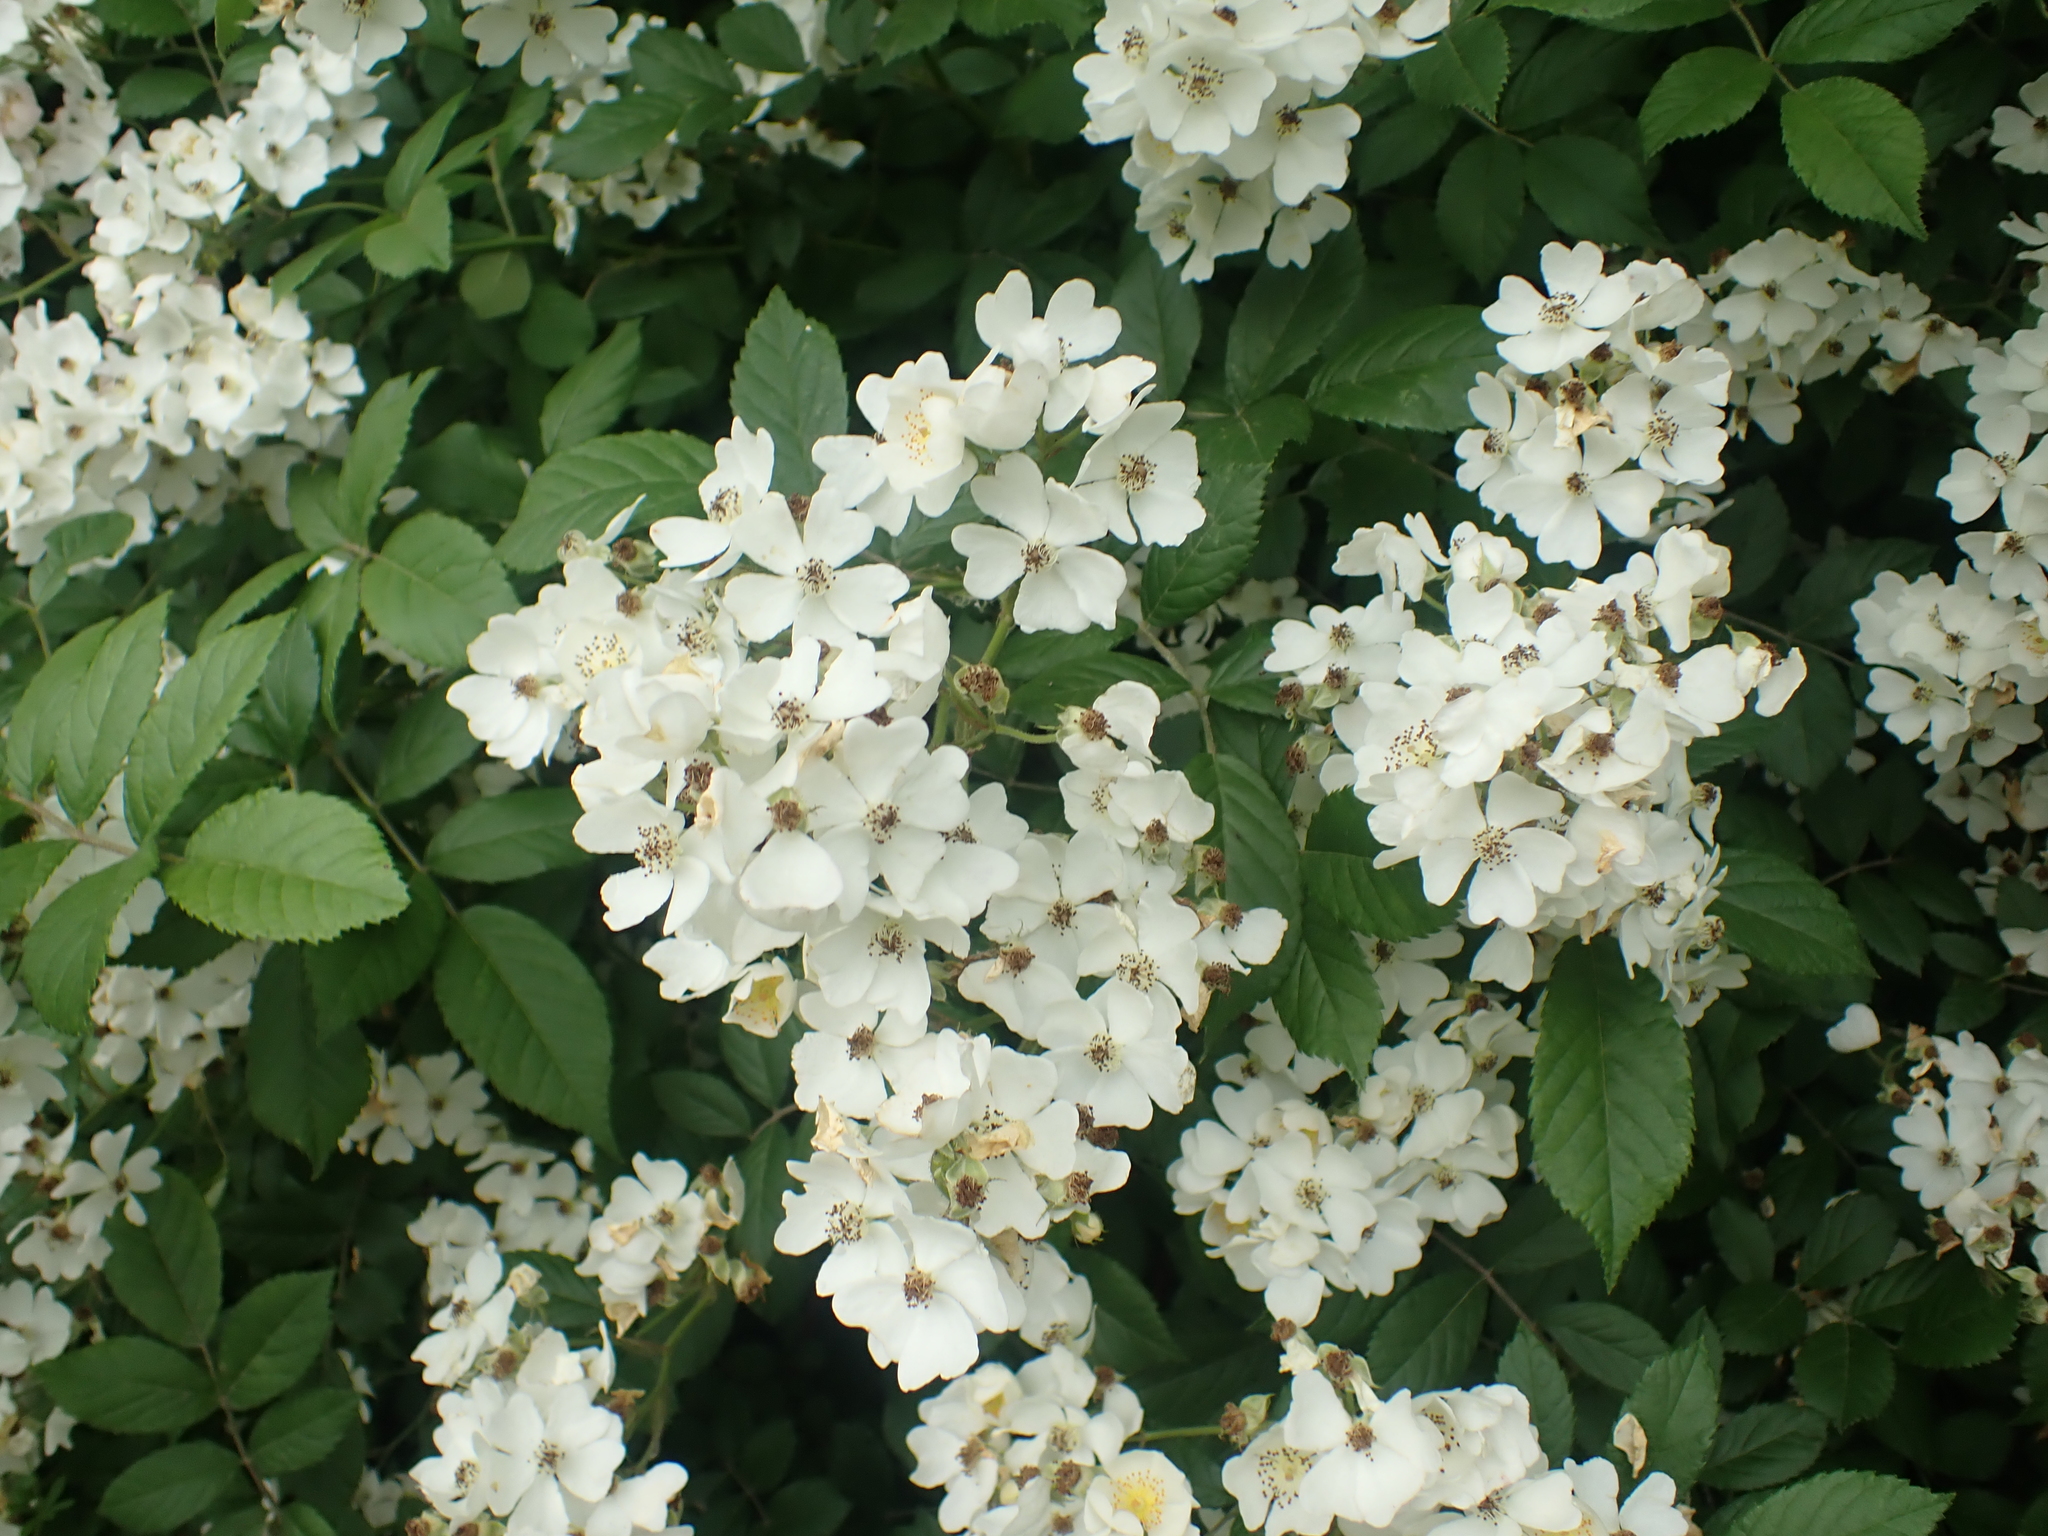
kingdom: Plantae
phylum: Tracheophyta
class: Magnoliopsida
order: Rosales
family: Rosaceae
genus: Rosa
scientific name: Rosa multiflora
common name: Multiflora rose
